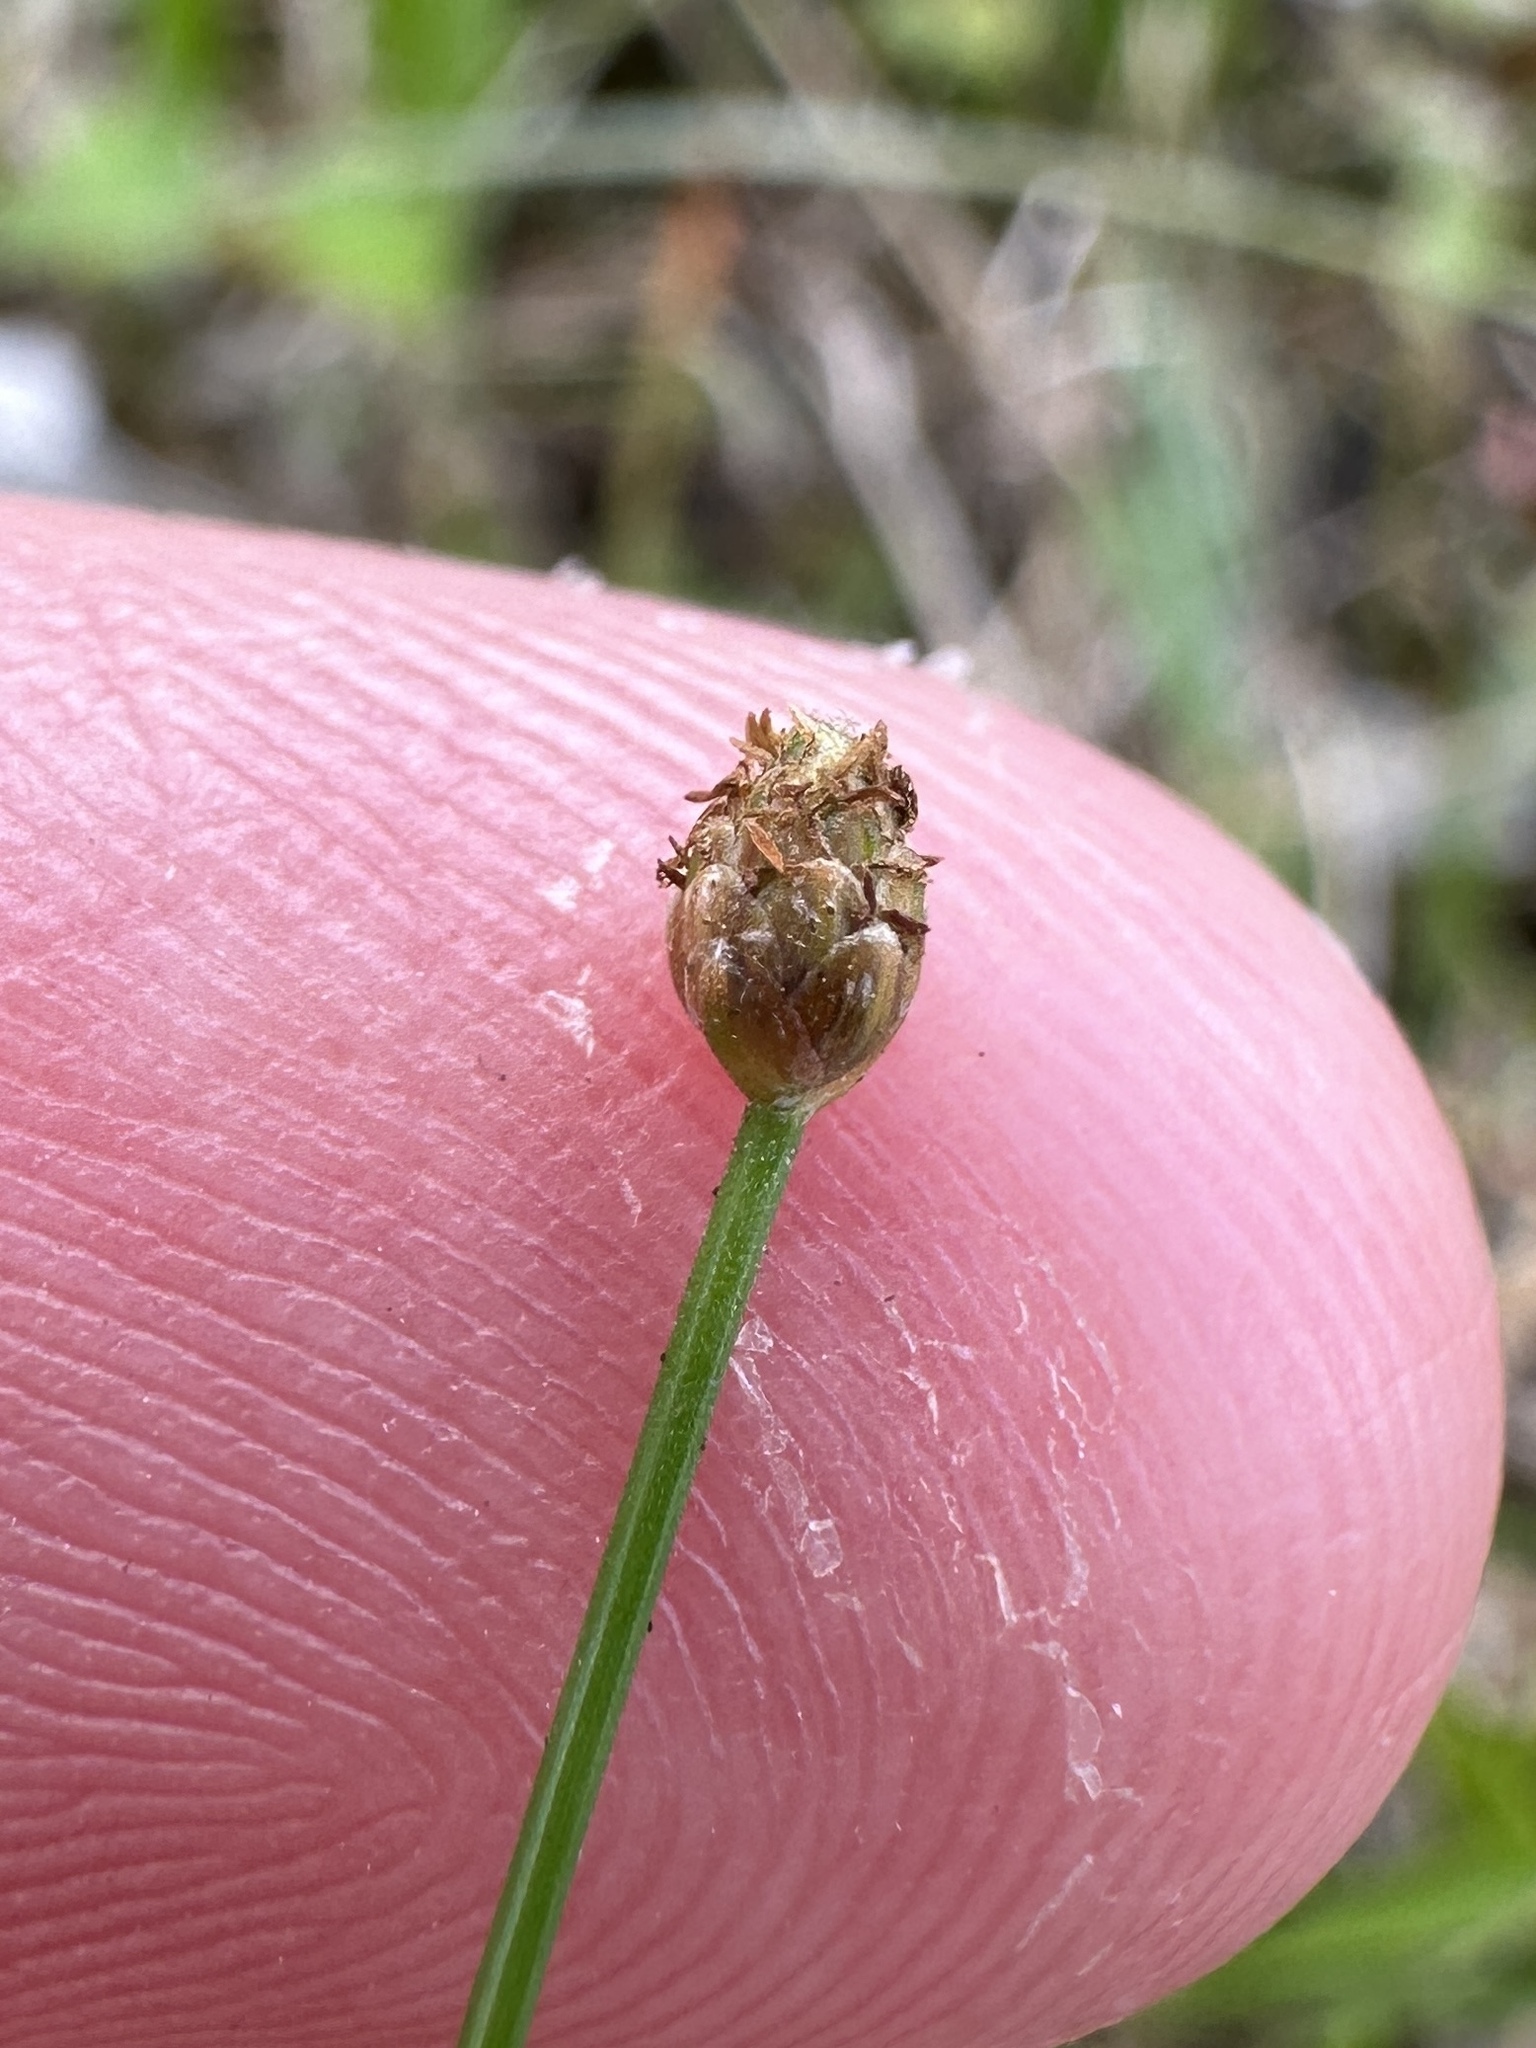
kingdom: Plantae
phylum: Tracheophyta
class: Liliopsida
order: Poales
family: Cyperaceae
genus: Eleocharis
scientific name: Eleocharis geniculata
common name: Canada spikesedge
